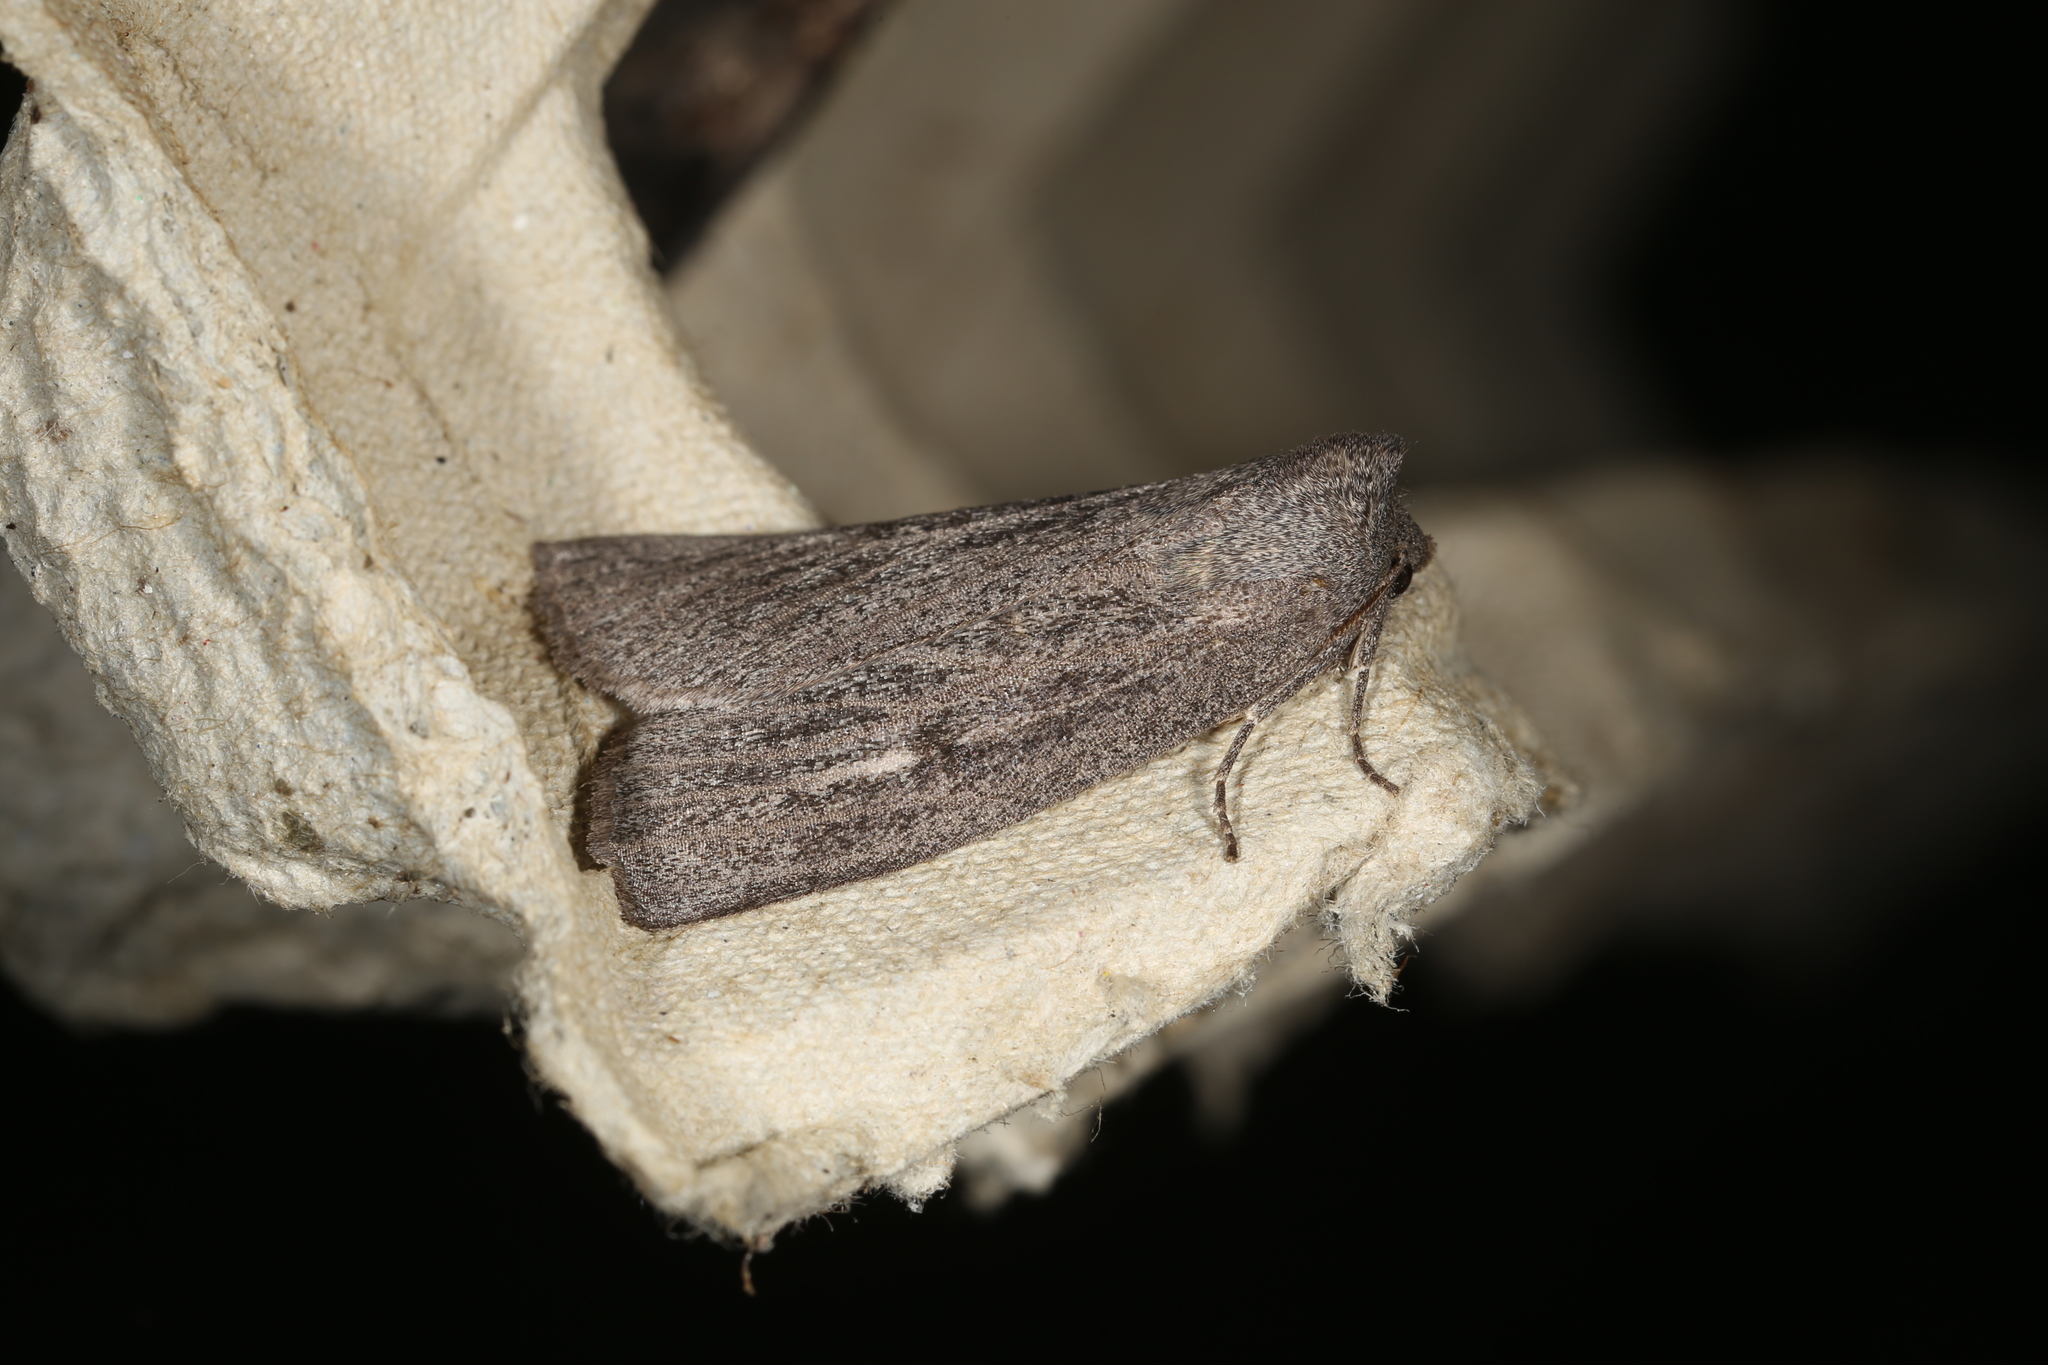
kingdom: Animalia
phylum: Arthropoda
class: Insecta
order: Lepidoptera
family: Geometridae
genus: Paralaea
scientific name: Paralaea ochrosoma
